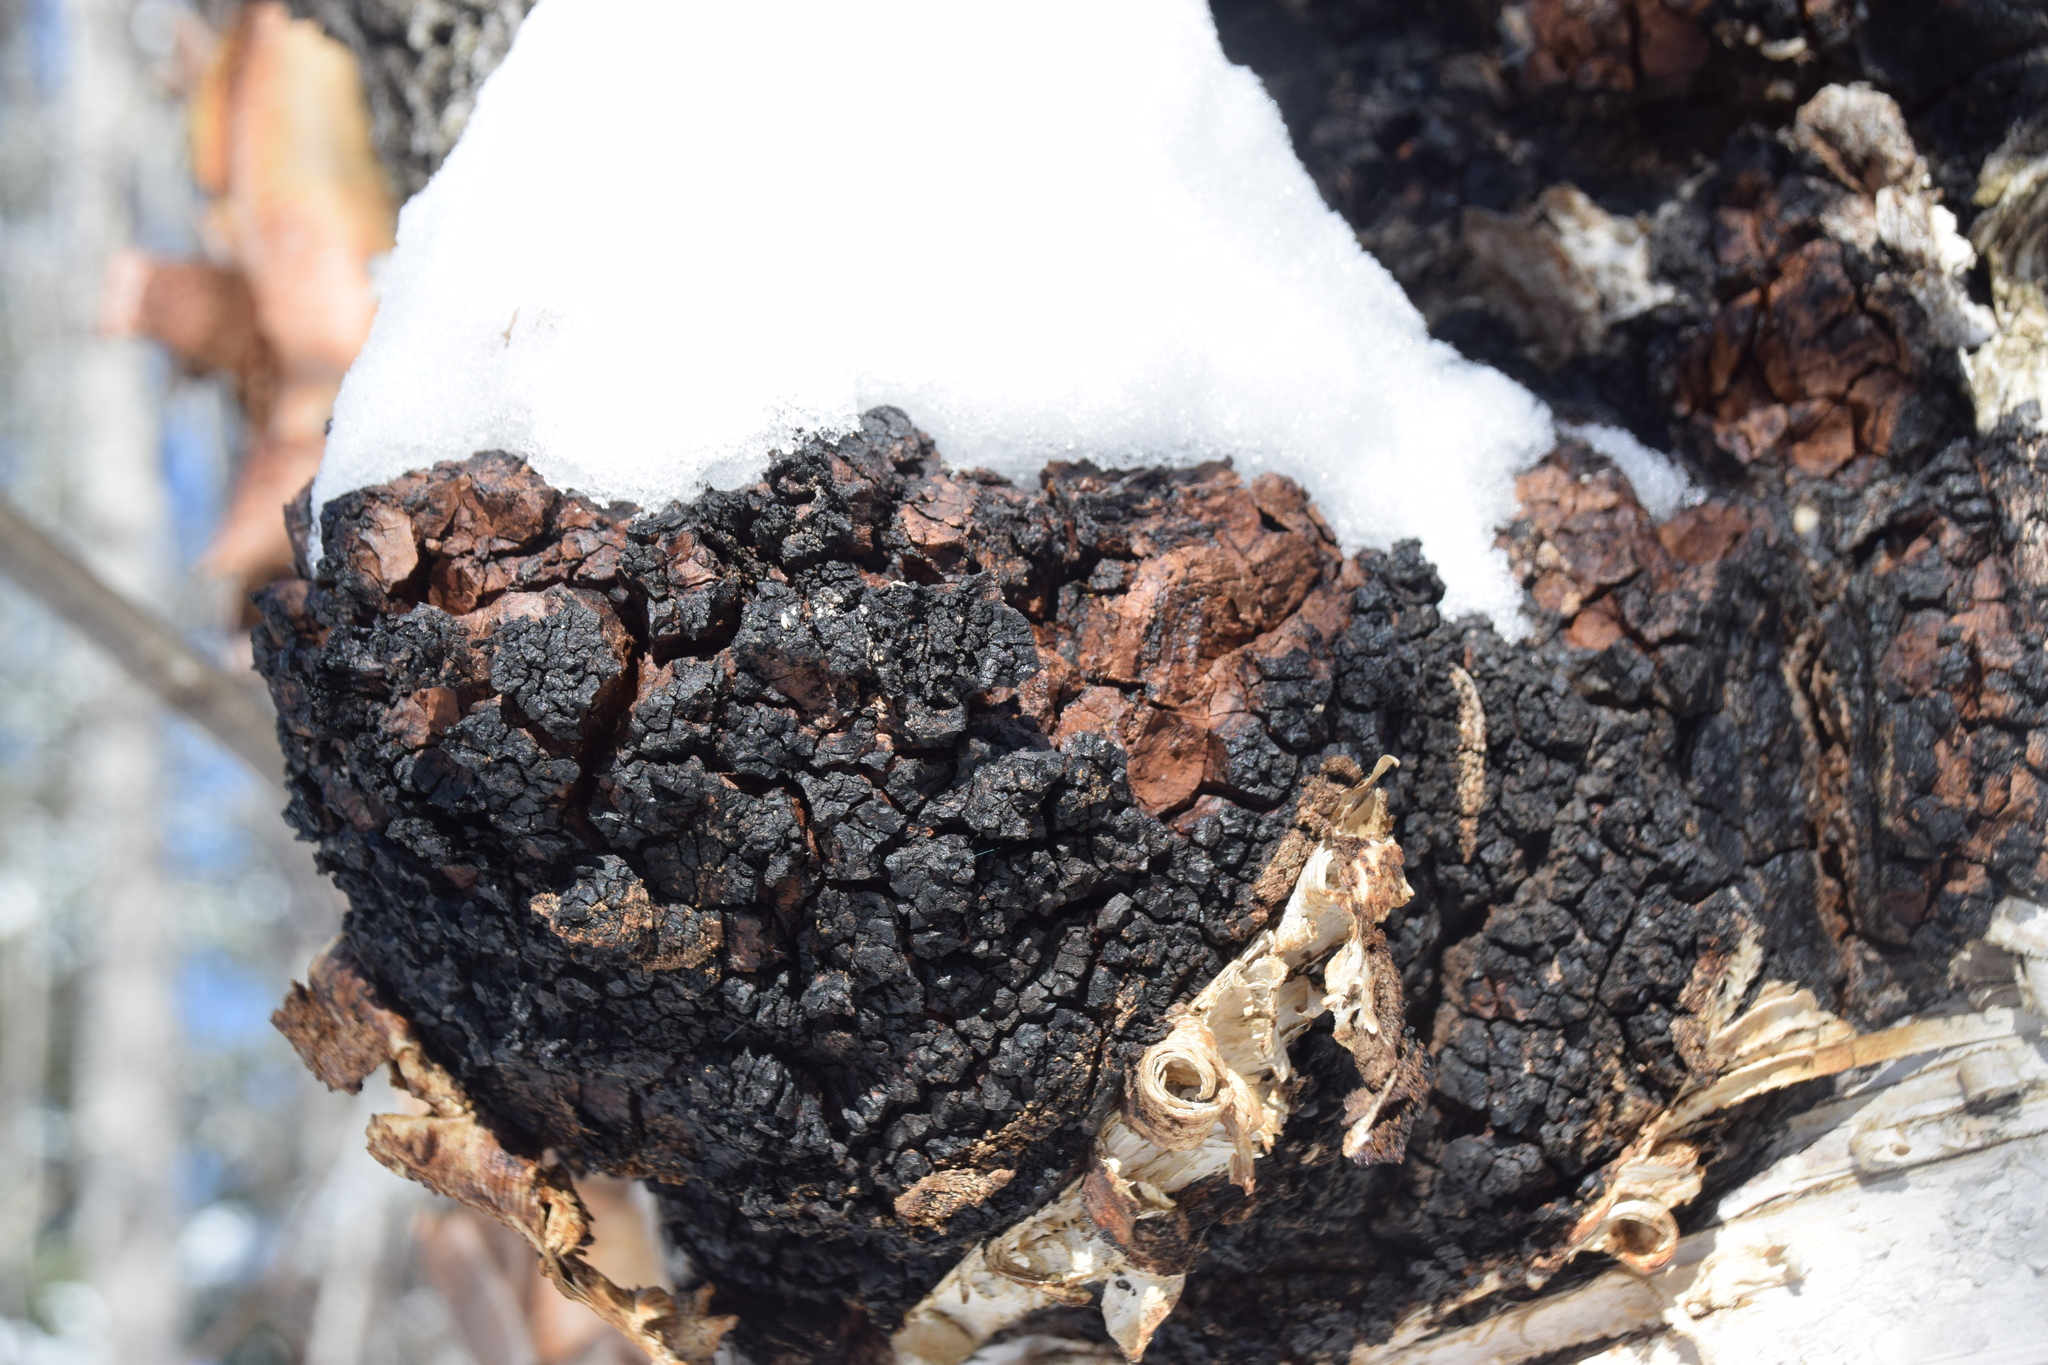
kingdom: Fungi
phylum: Basidiomycota
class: Agaricomycetes
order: Hymenochaetales
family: Hymenochaetaceae
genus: Inonotus
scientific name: Inonotus obliquus
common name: Chaga
